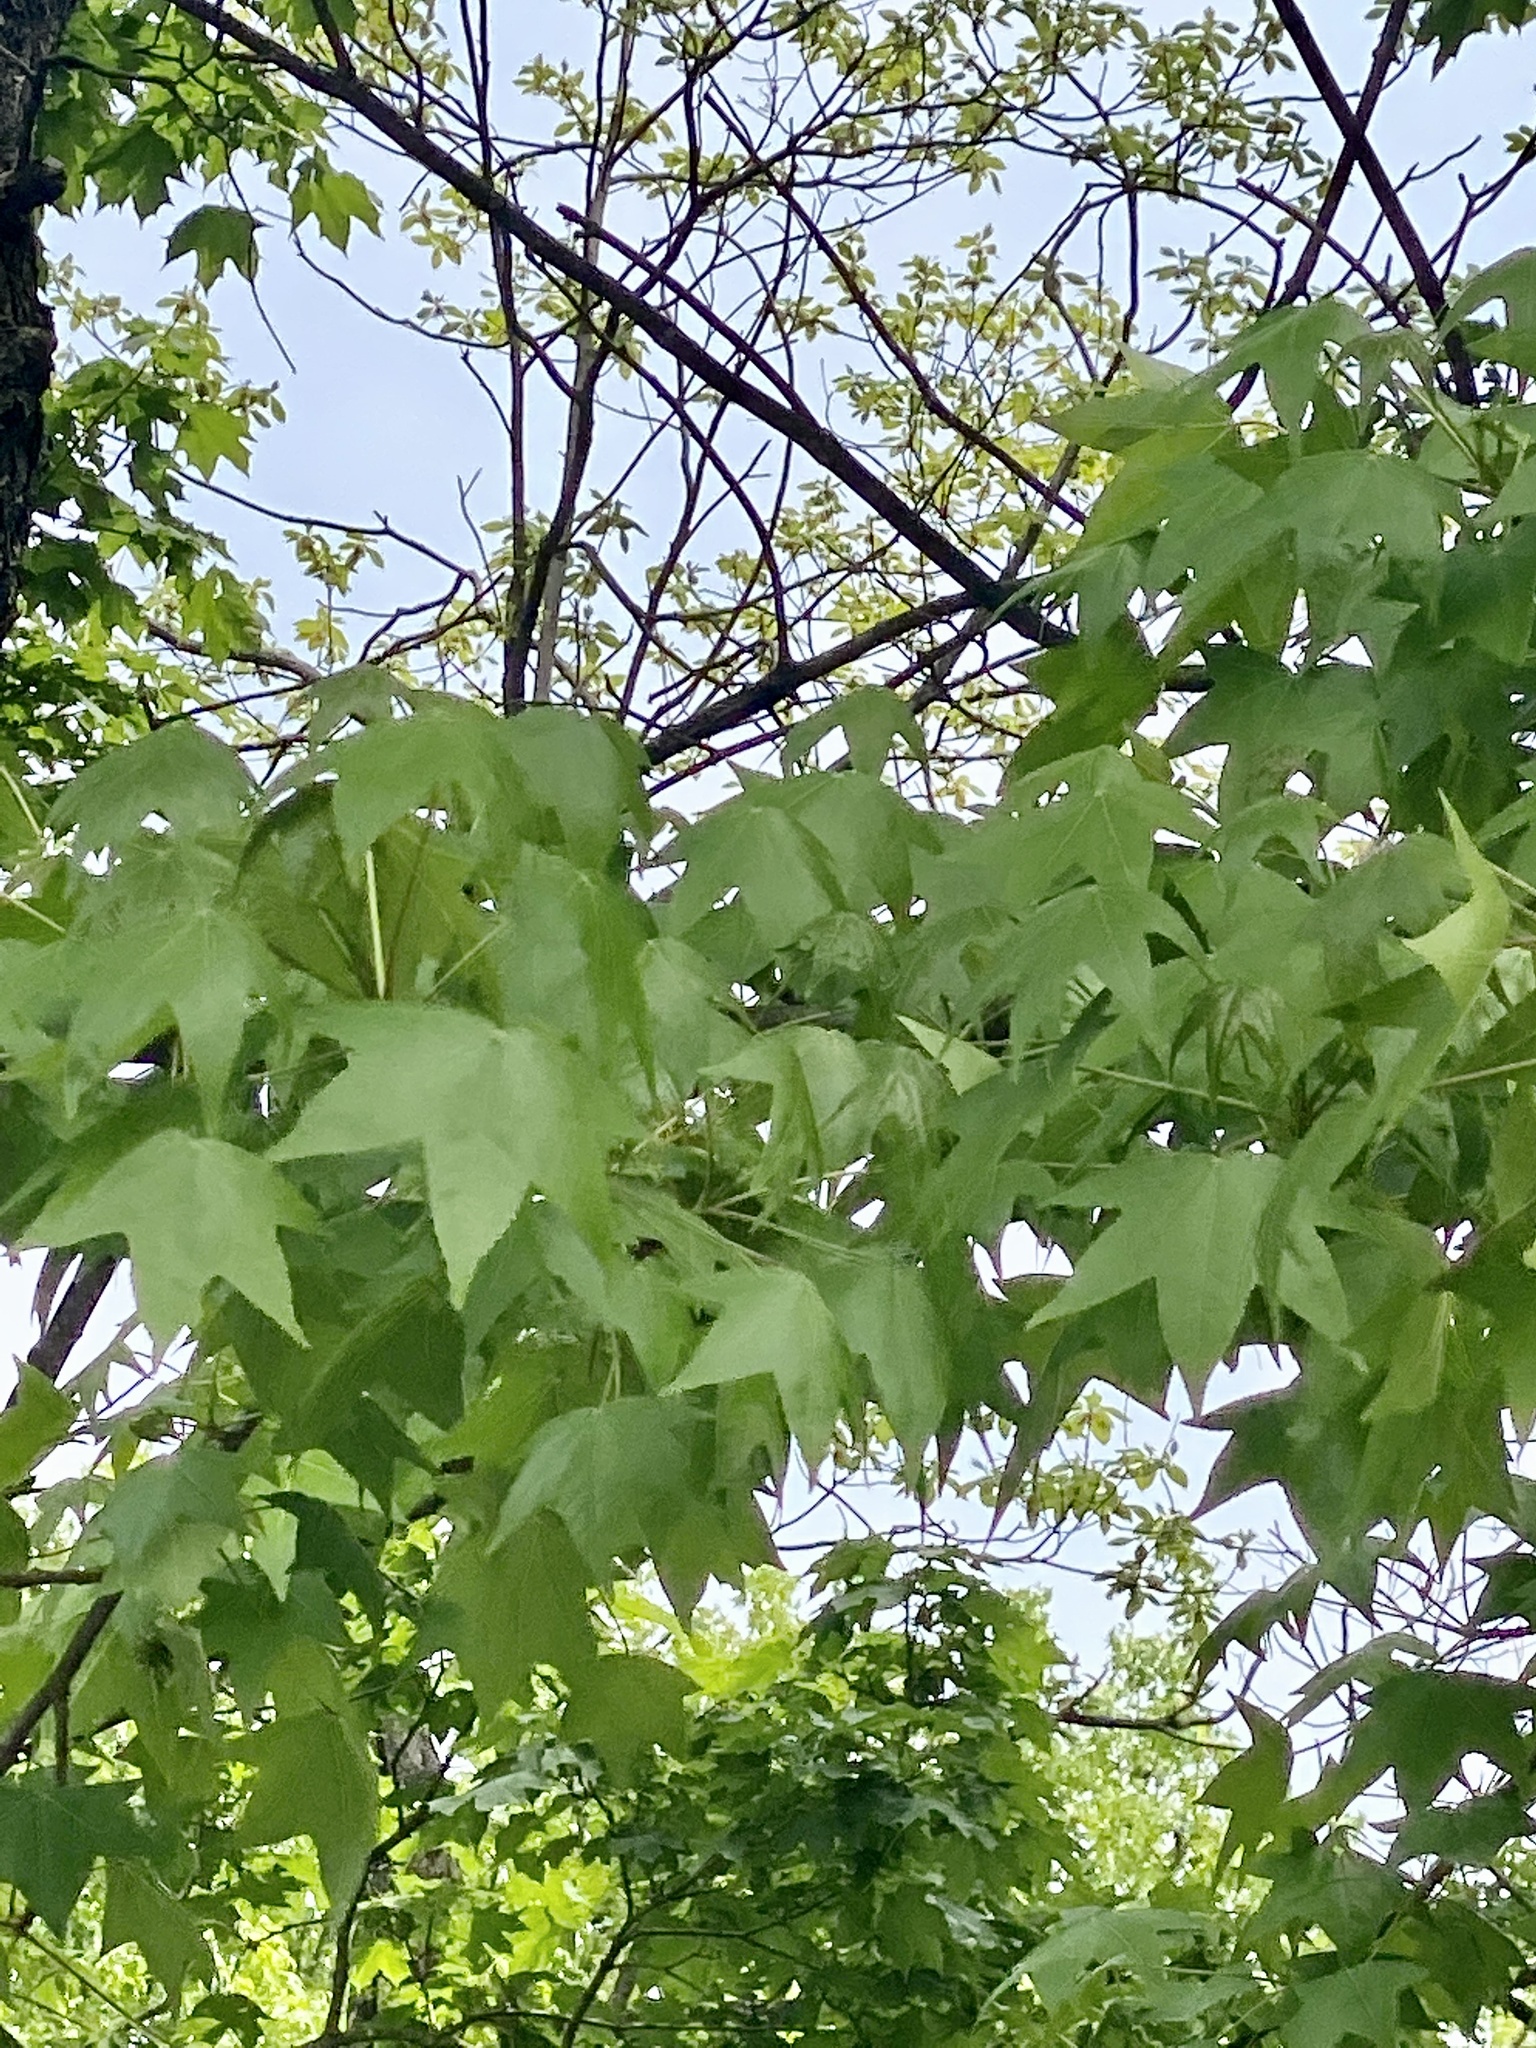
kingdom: Plantae
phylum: Tracheophyta
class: Magnoliopsida
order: Saxifragales
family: Altingiaceae
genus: Liquidambar
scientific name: Liquidambar styraciflua
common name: Sweet gum
